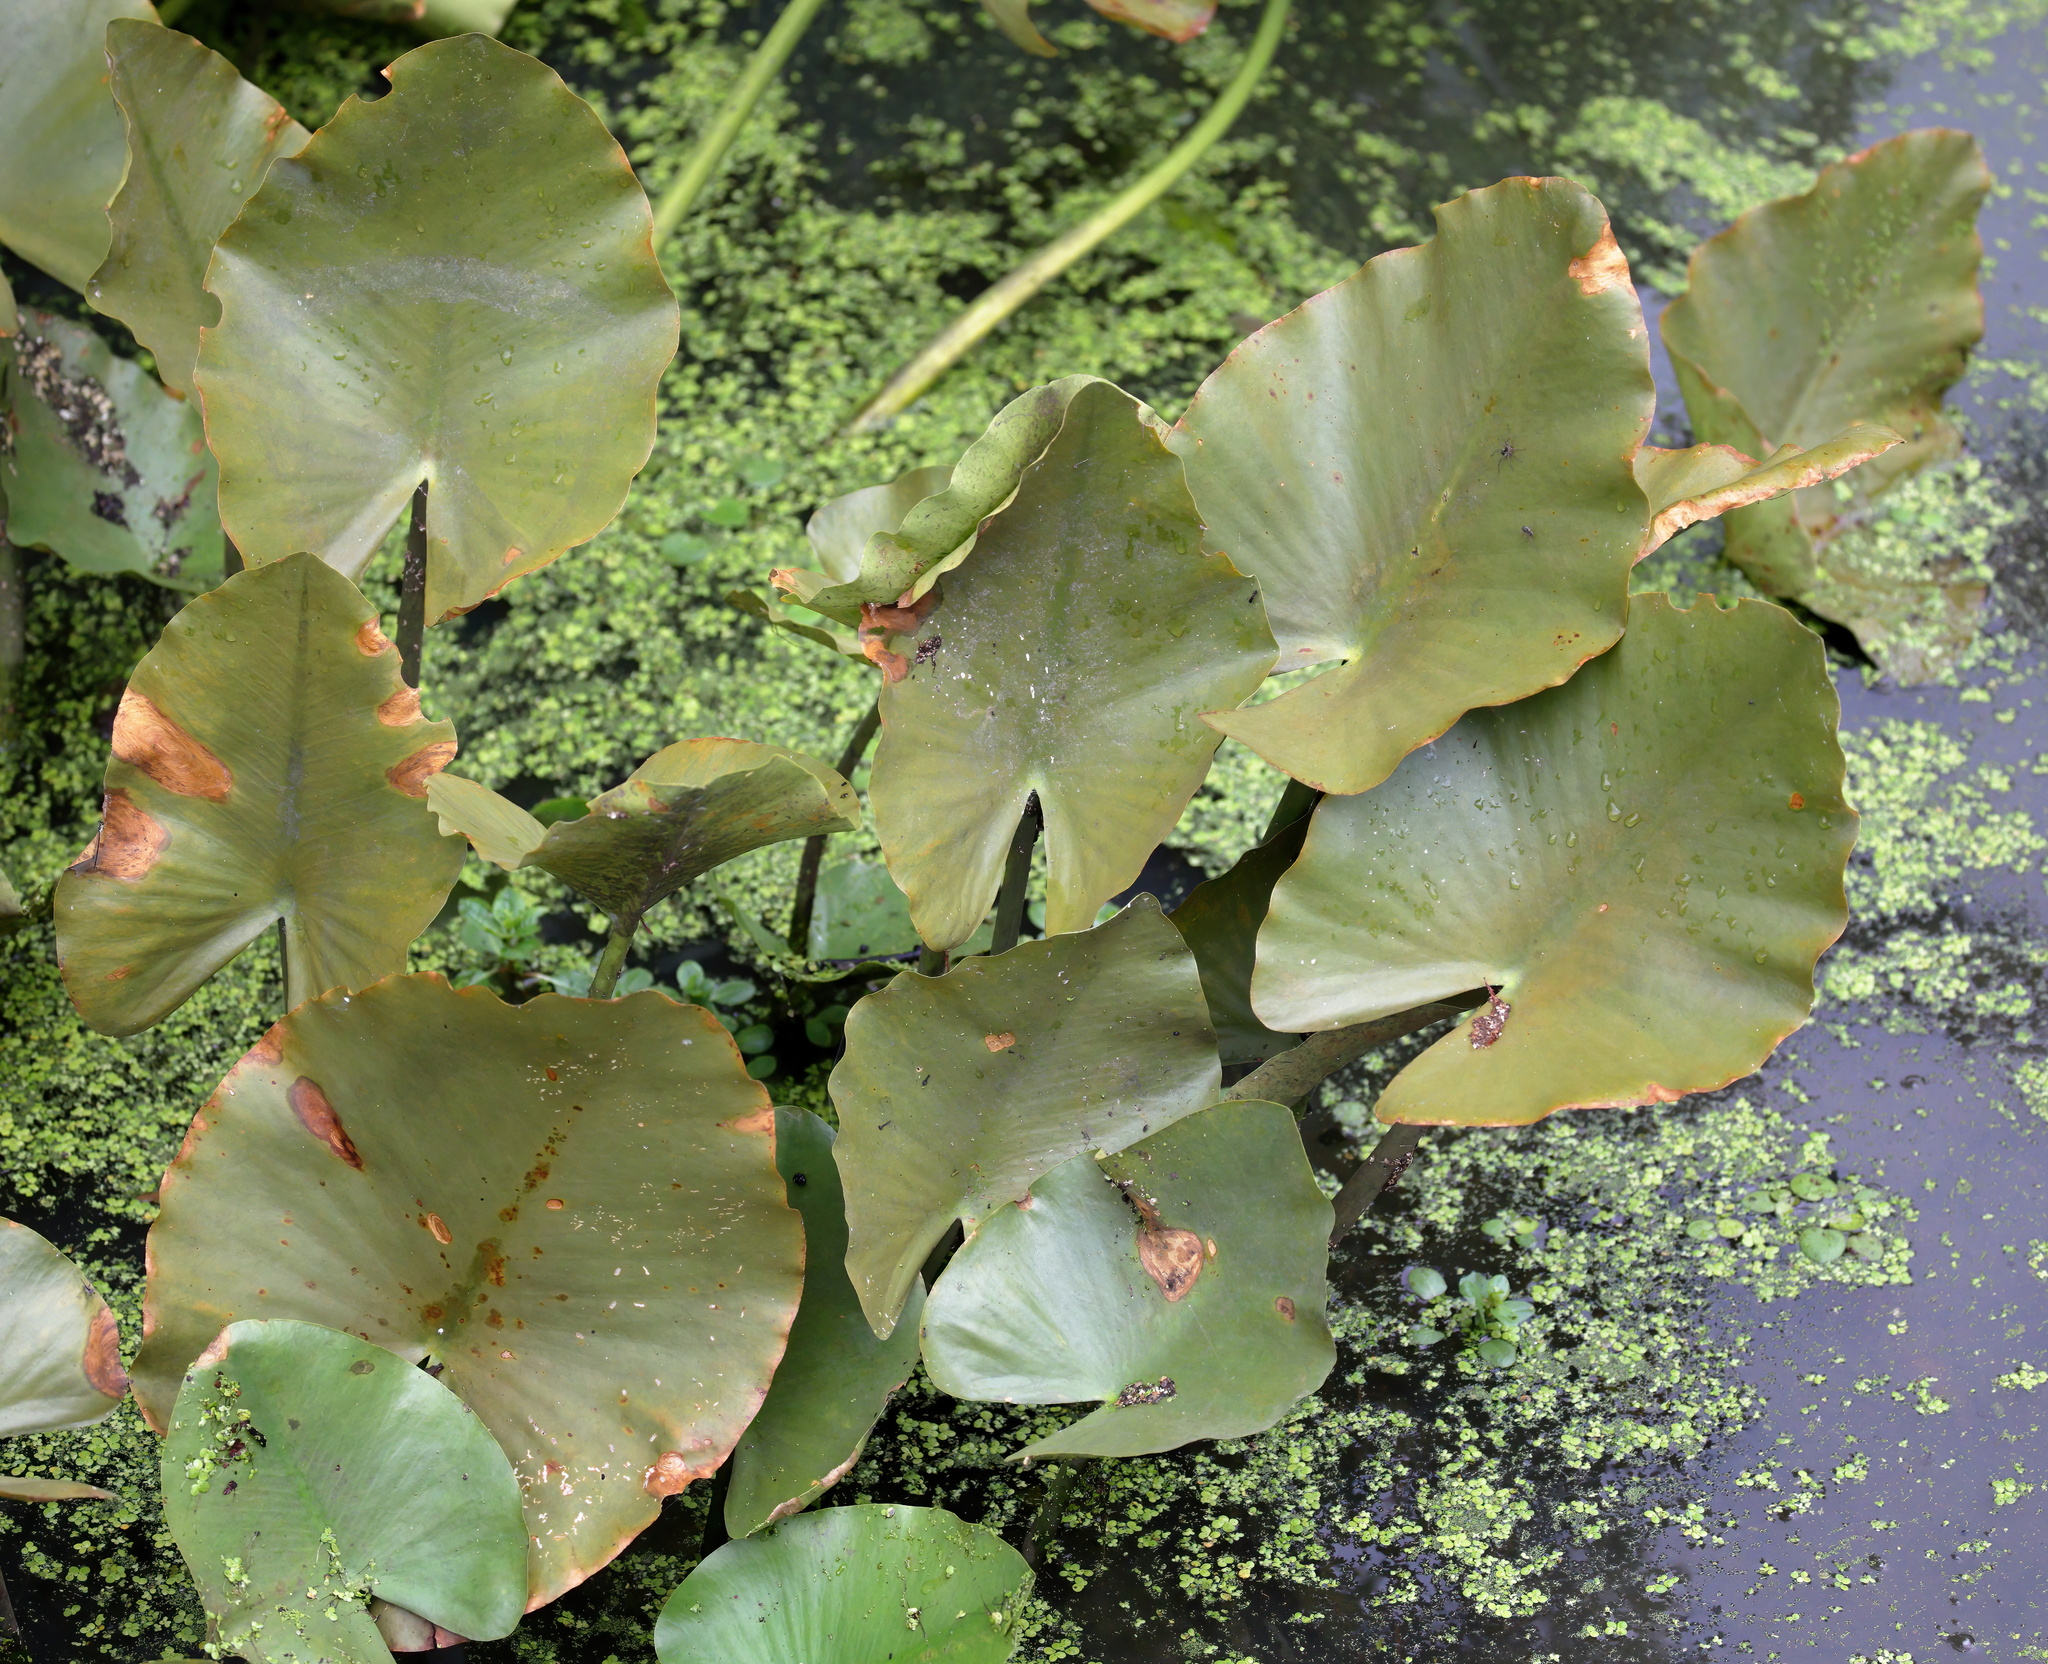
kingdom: Plantae
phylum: Tracheophyta
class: Magnoliopsida
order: Nymphaeales
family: Nymphaeaceae
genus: Nuphar
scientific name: Nuphar advena
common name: Spatter-dock
